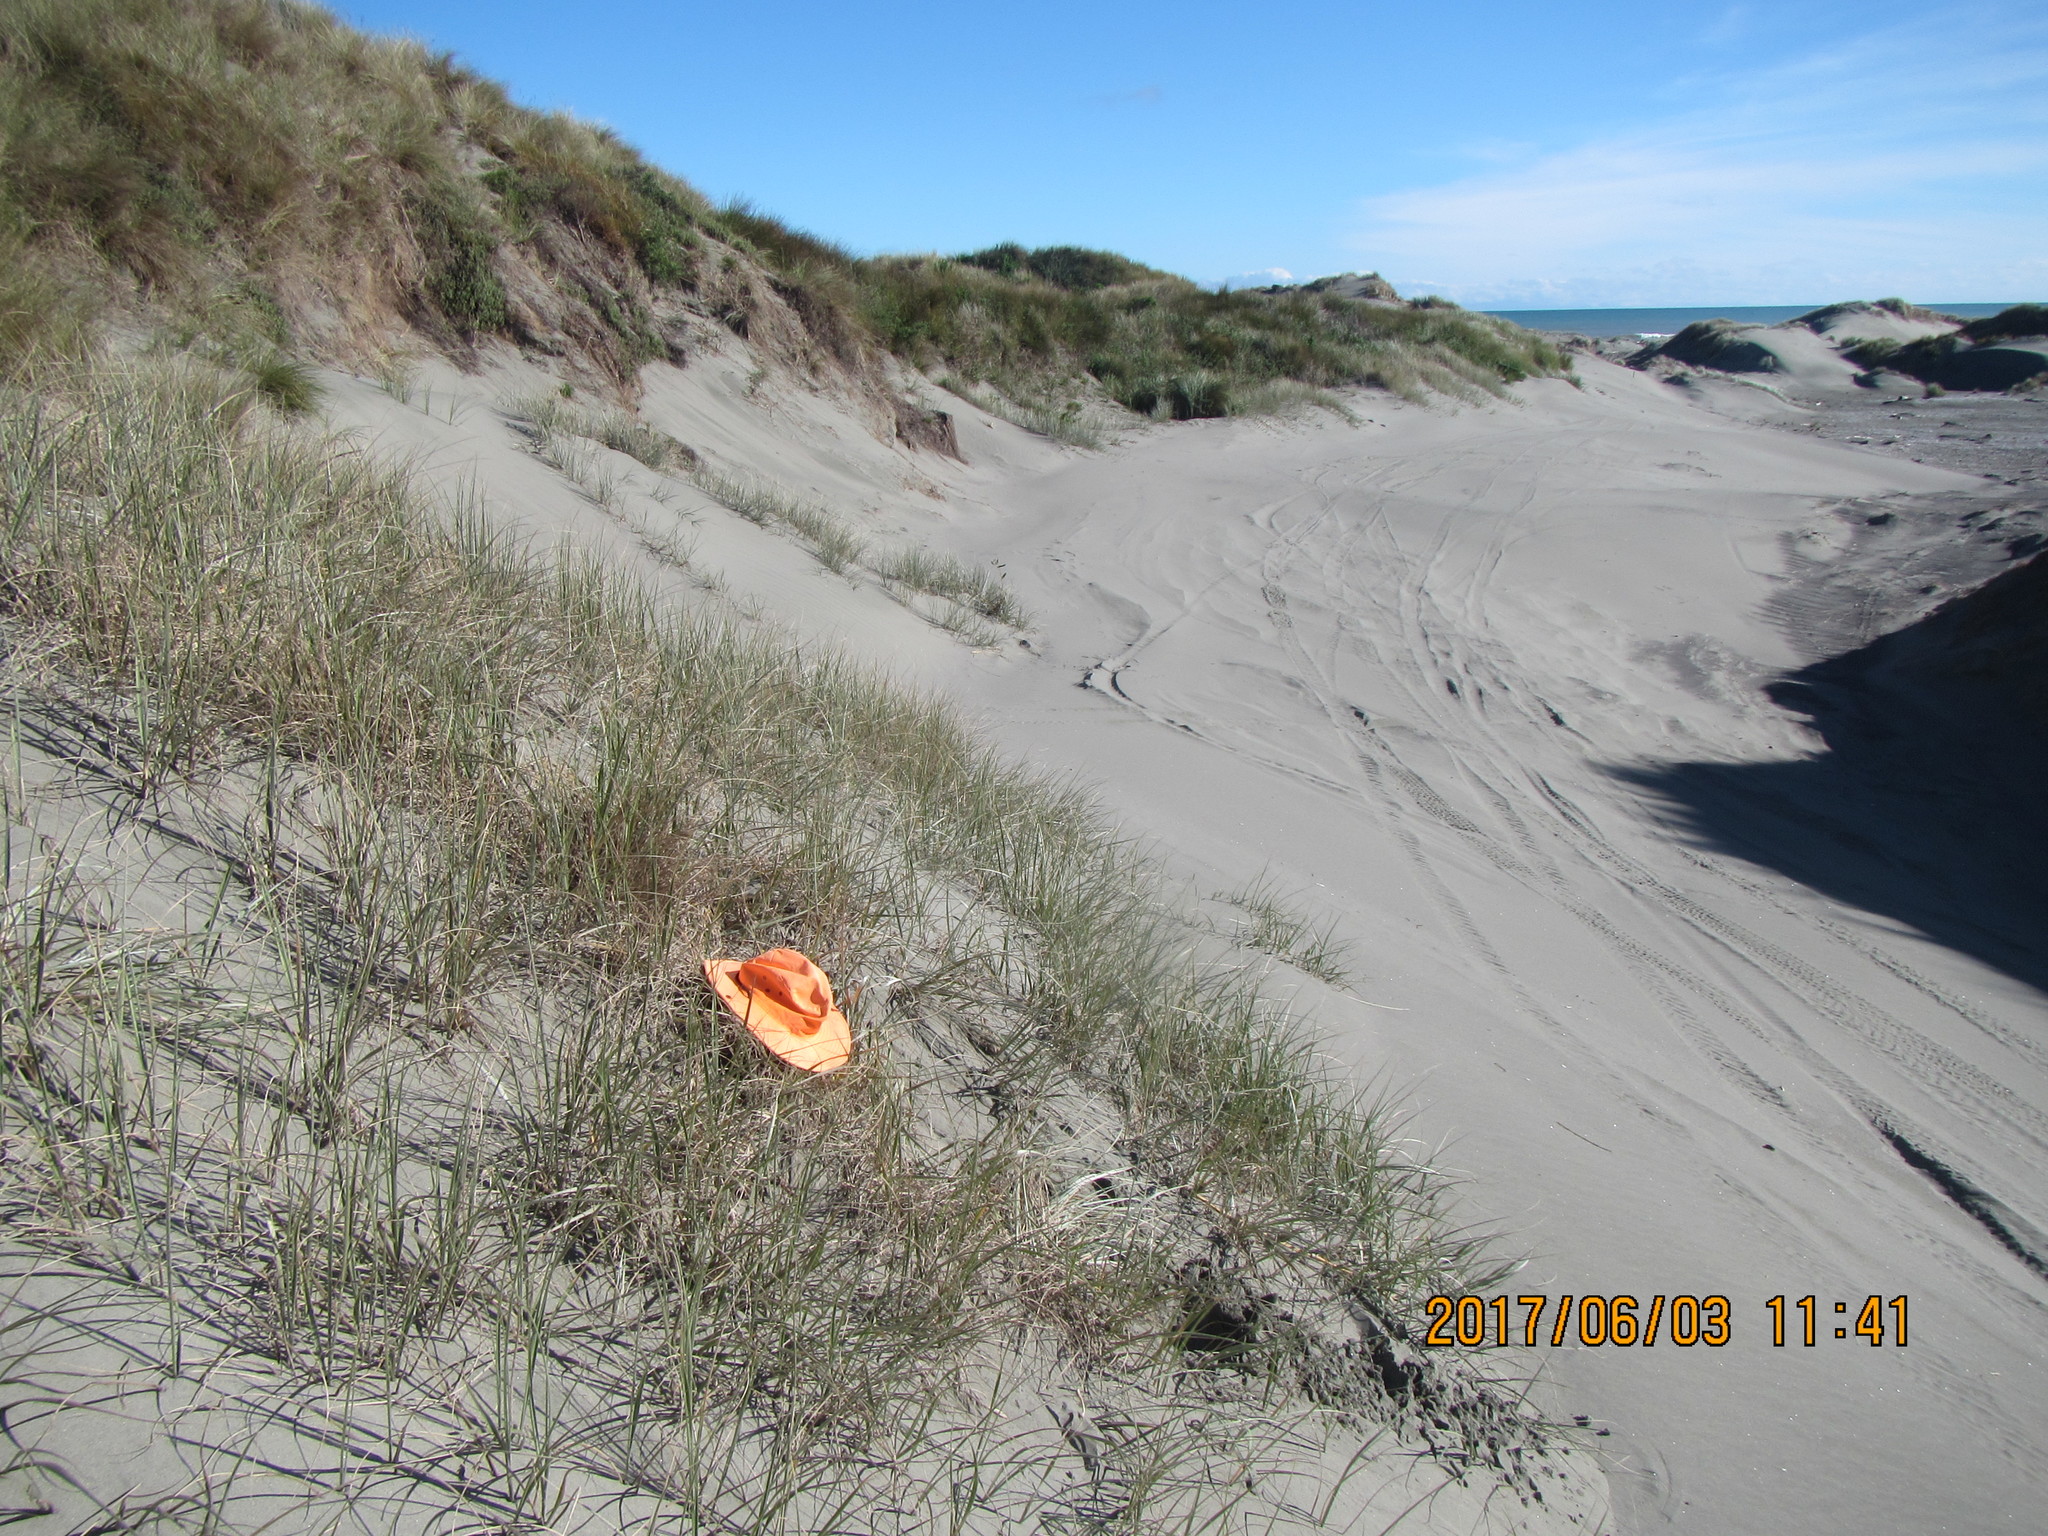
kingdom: Animalia
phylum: Arthropoda
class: Arachnida
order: Araneae
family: Gnaphosidae
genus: Anzacia
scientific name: Anzacia gemmea
